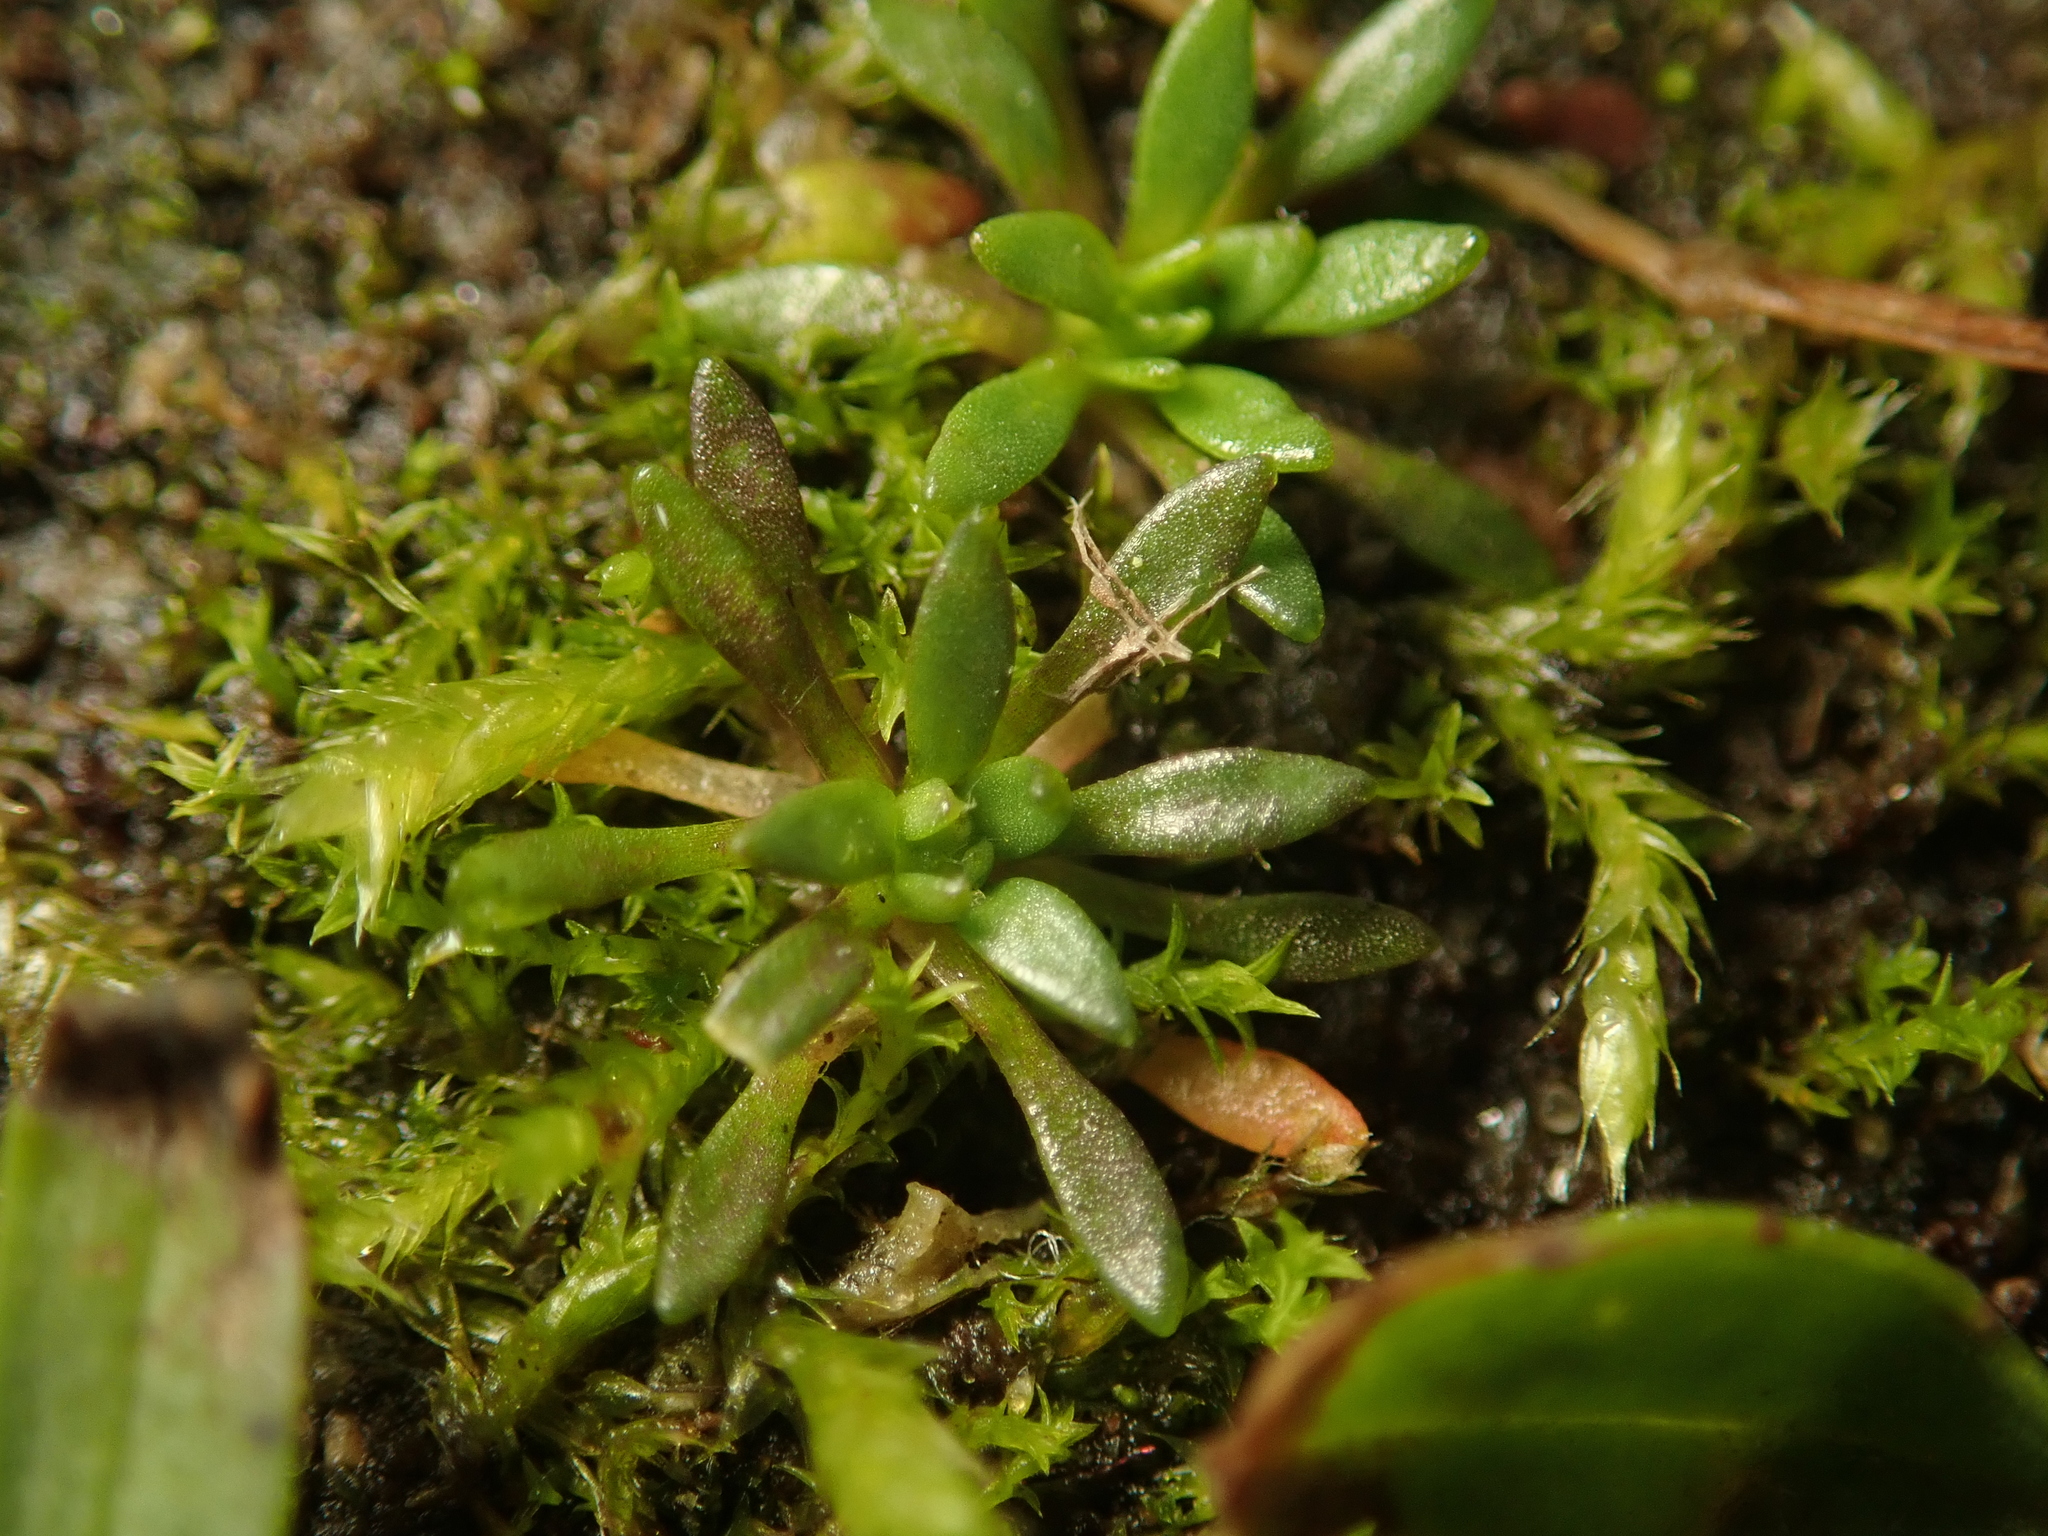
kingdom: Plantae
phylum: Tracheophyta
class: Magnoliopsida
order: Brassicales
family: Brassicaceae
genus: Draba
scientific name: Draba verna
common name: Spring draba
